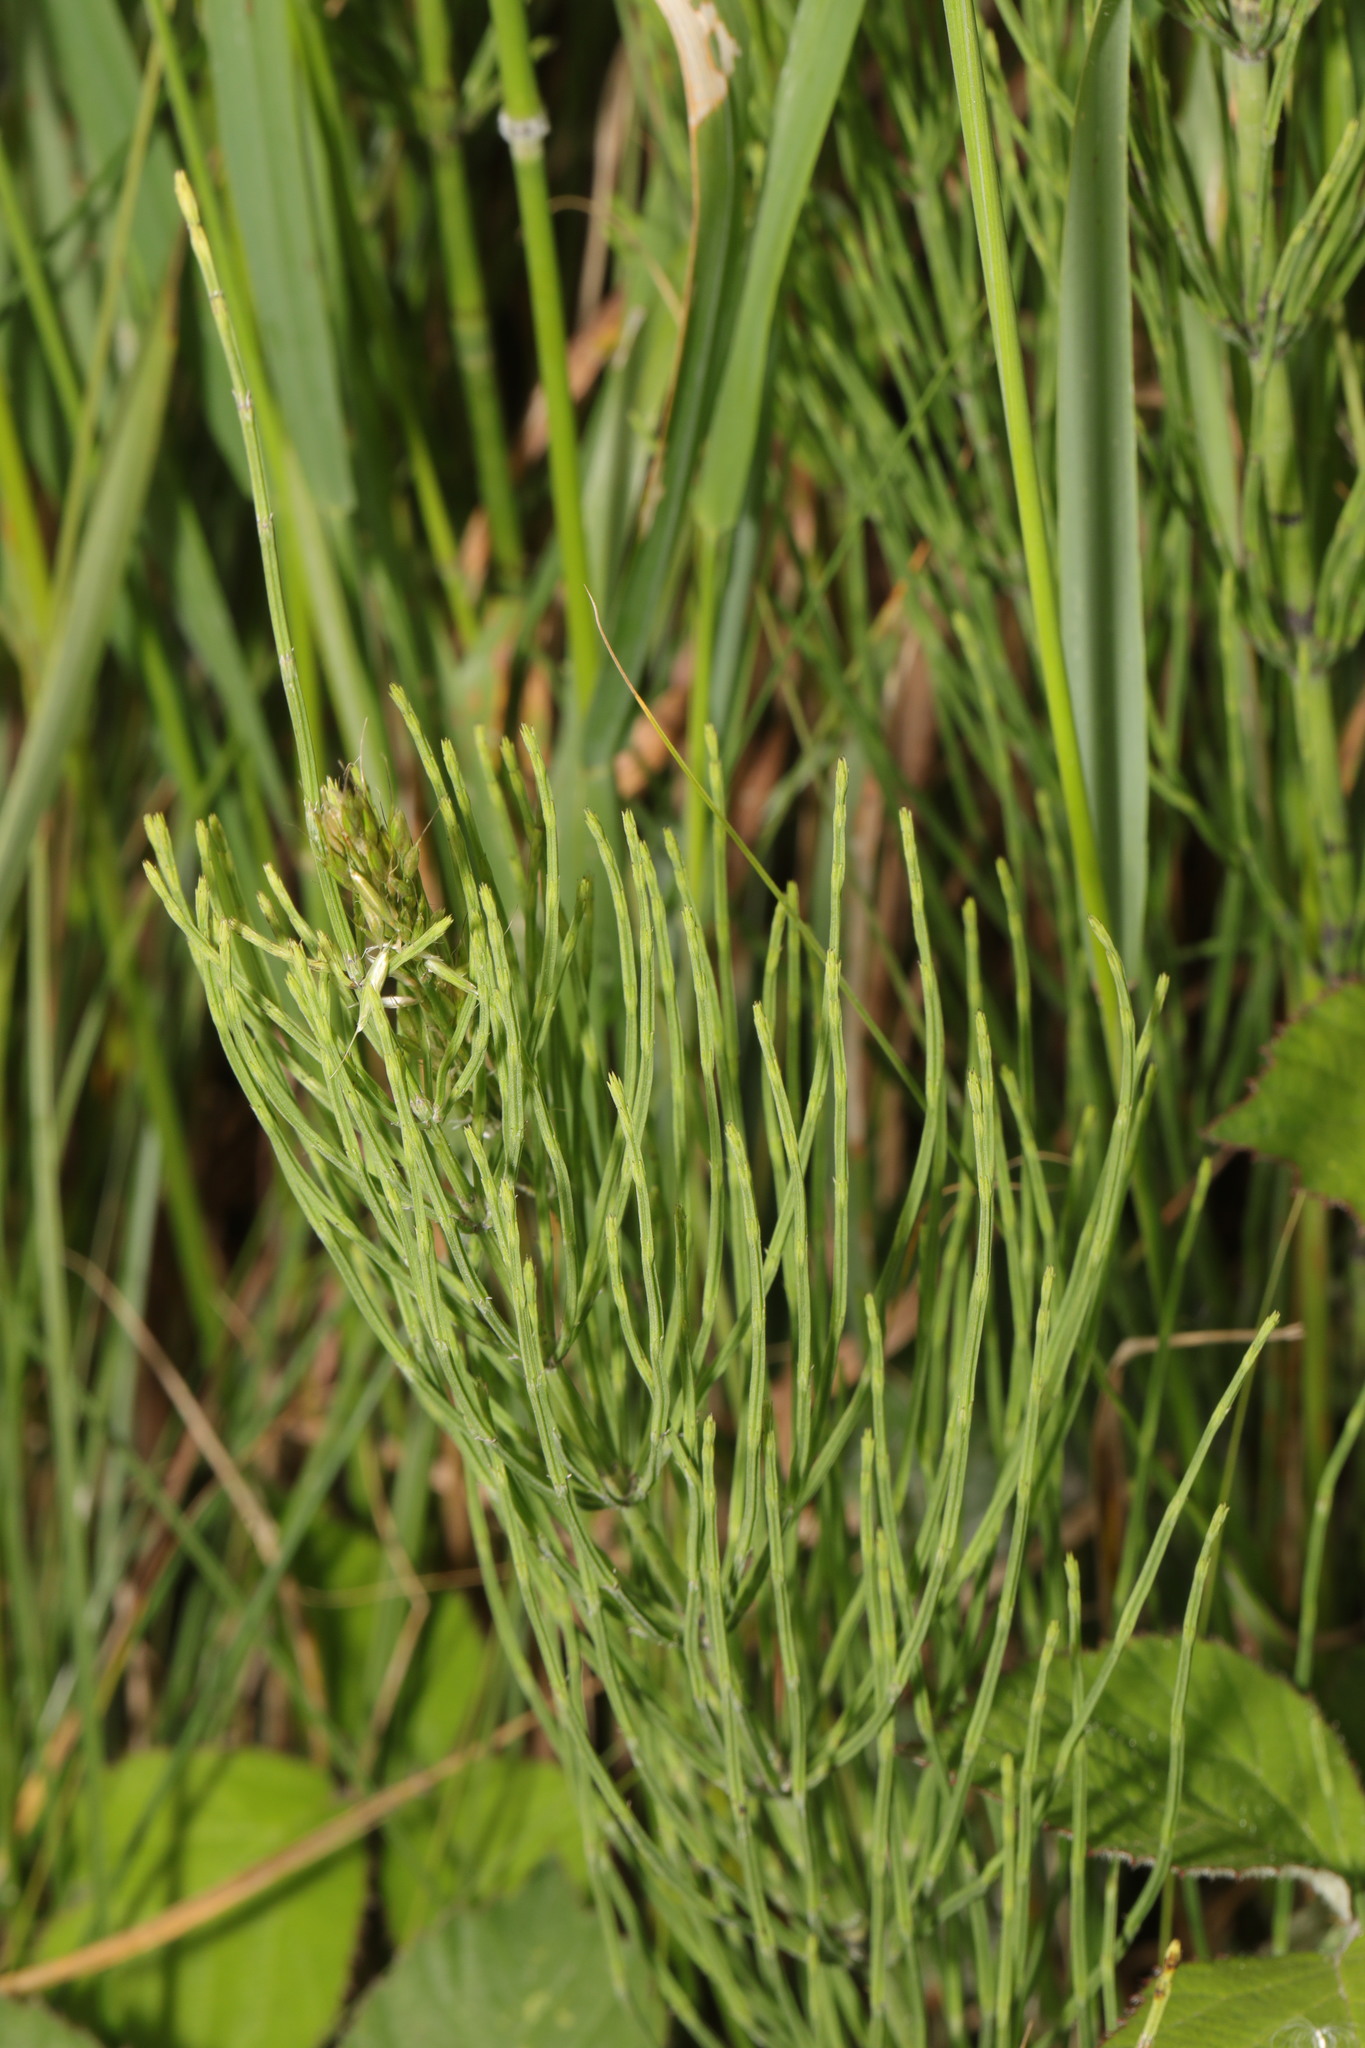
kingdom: Plantae
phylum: Tracheophyta
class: Polypodiopsida
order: Equisetales
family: Equisetaceae
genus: Equisetum
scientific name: Equisetum arvense
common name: Field horsetail
